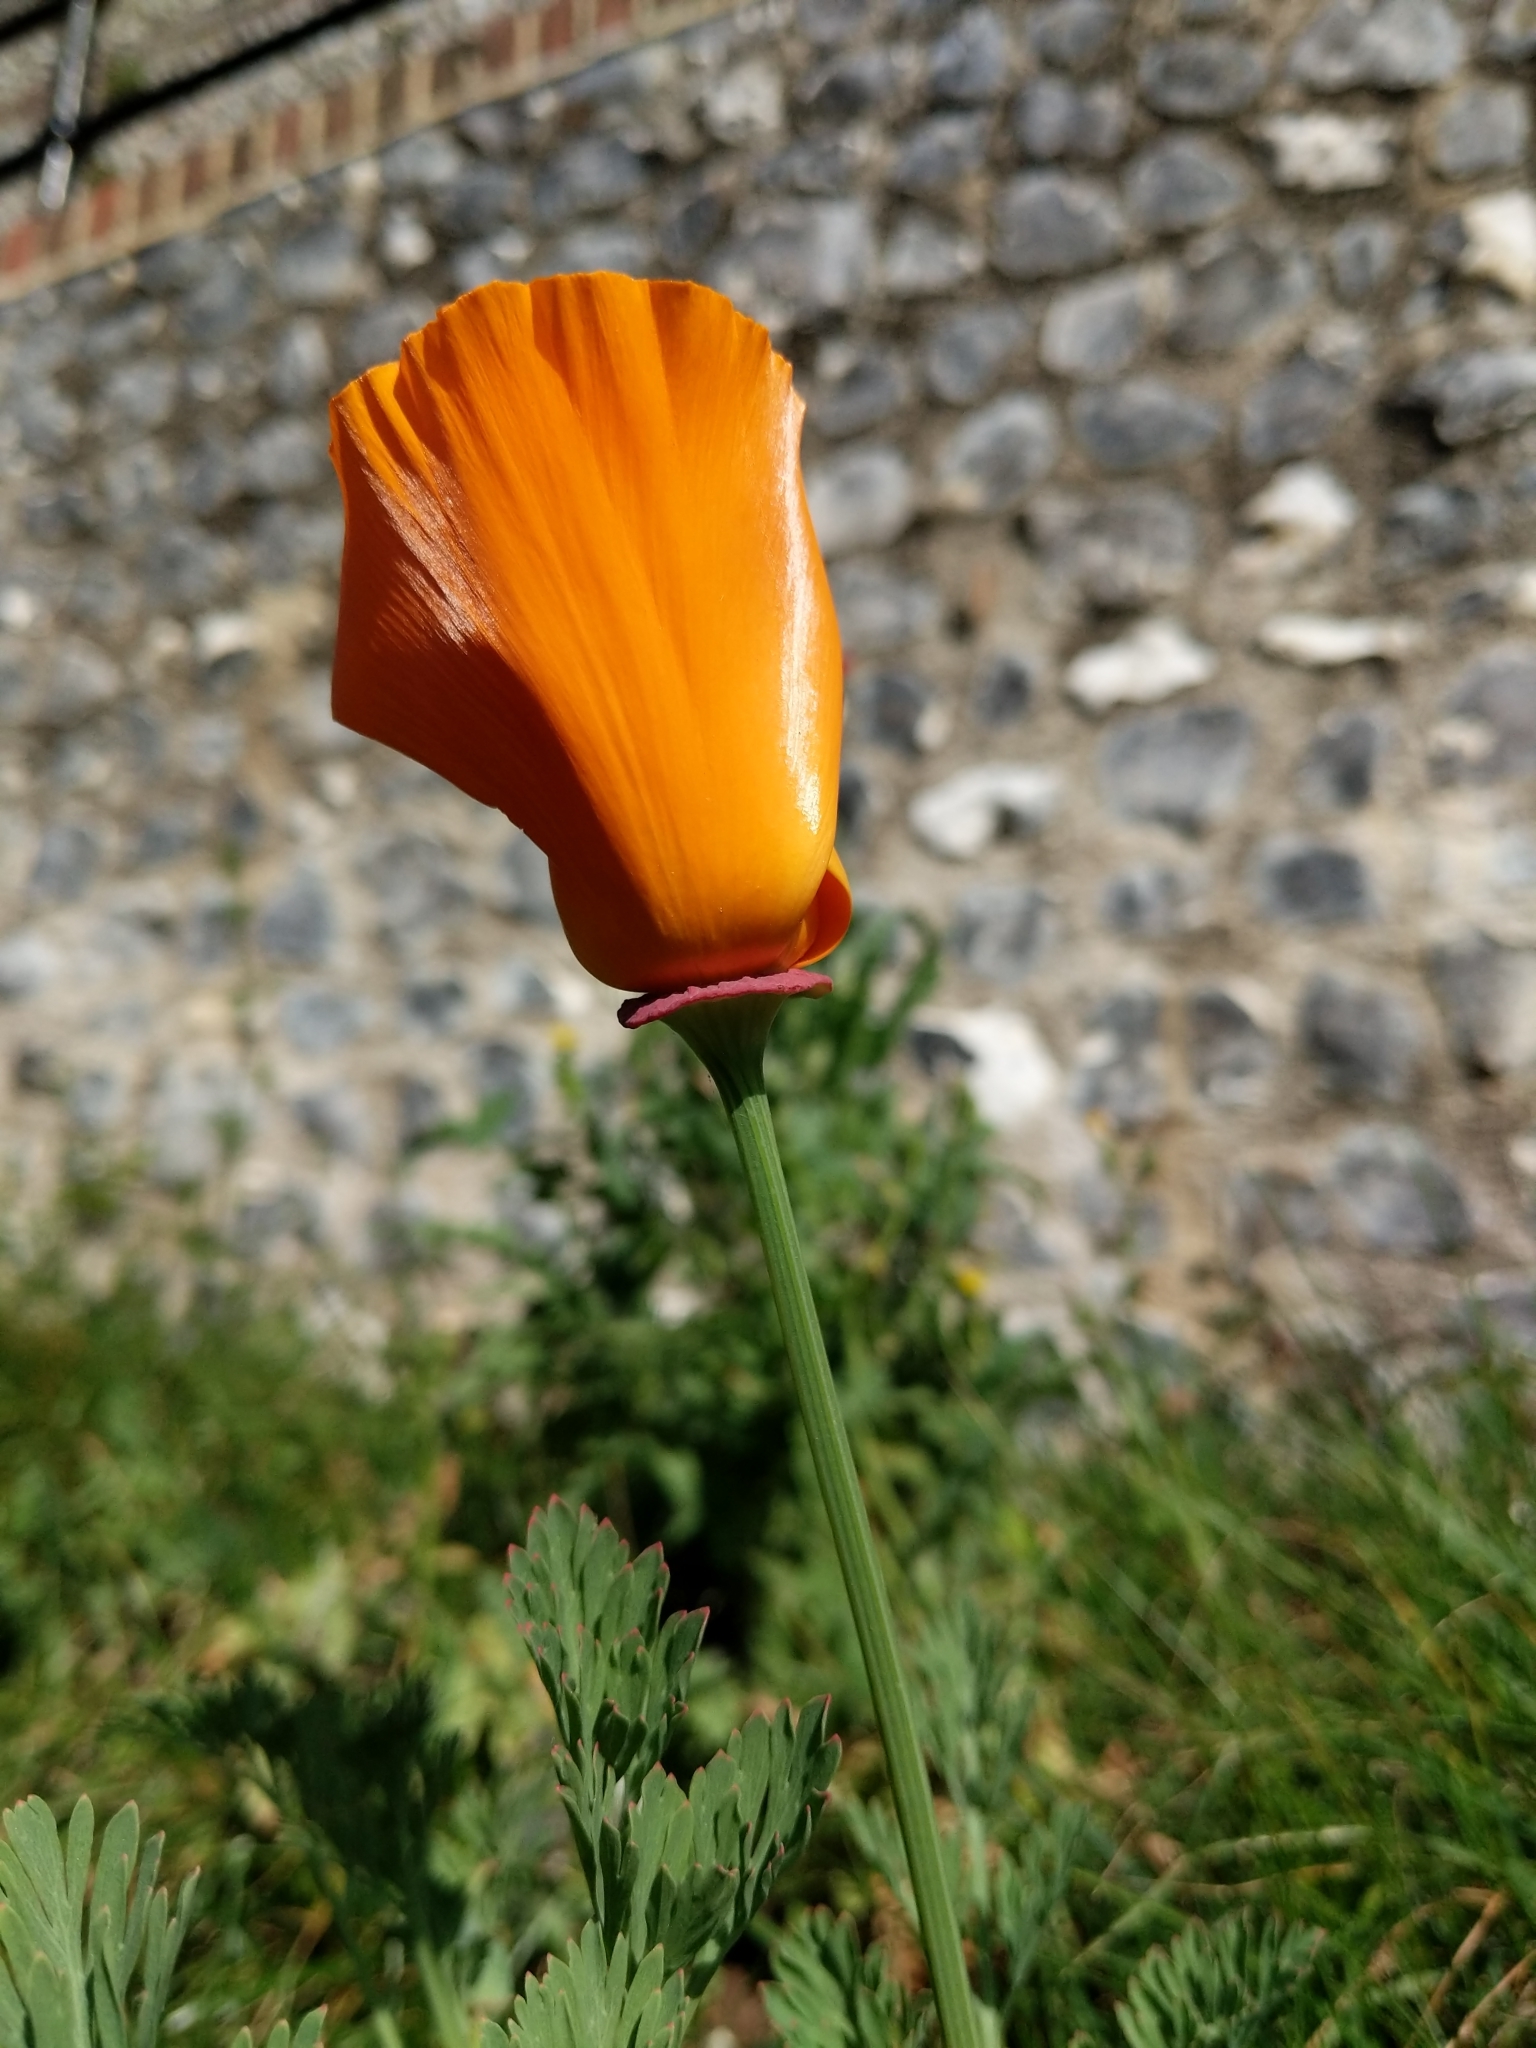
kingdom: Plantae
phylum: Tracheophyta
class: Magnoliopsida
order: Ranunculales
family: Papaveraceae
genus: Eschscholzia
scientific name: Eschscholzia californica
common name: California poppy
